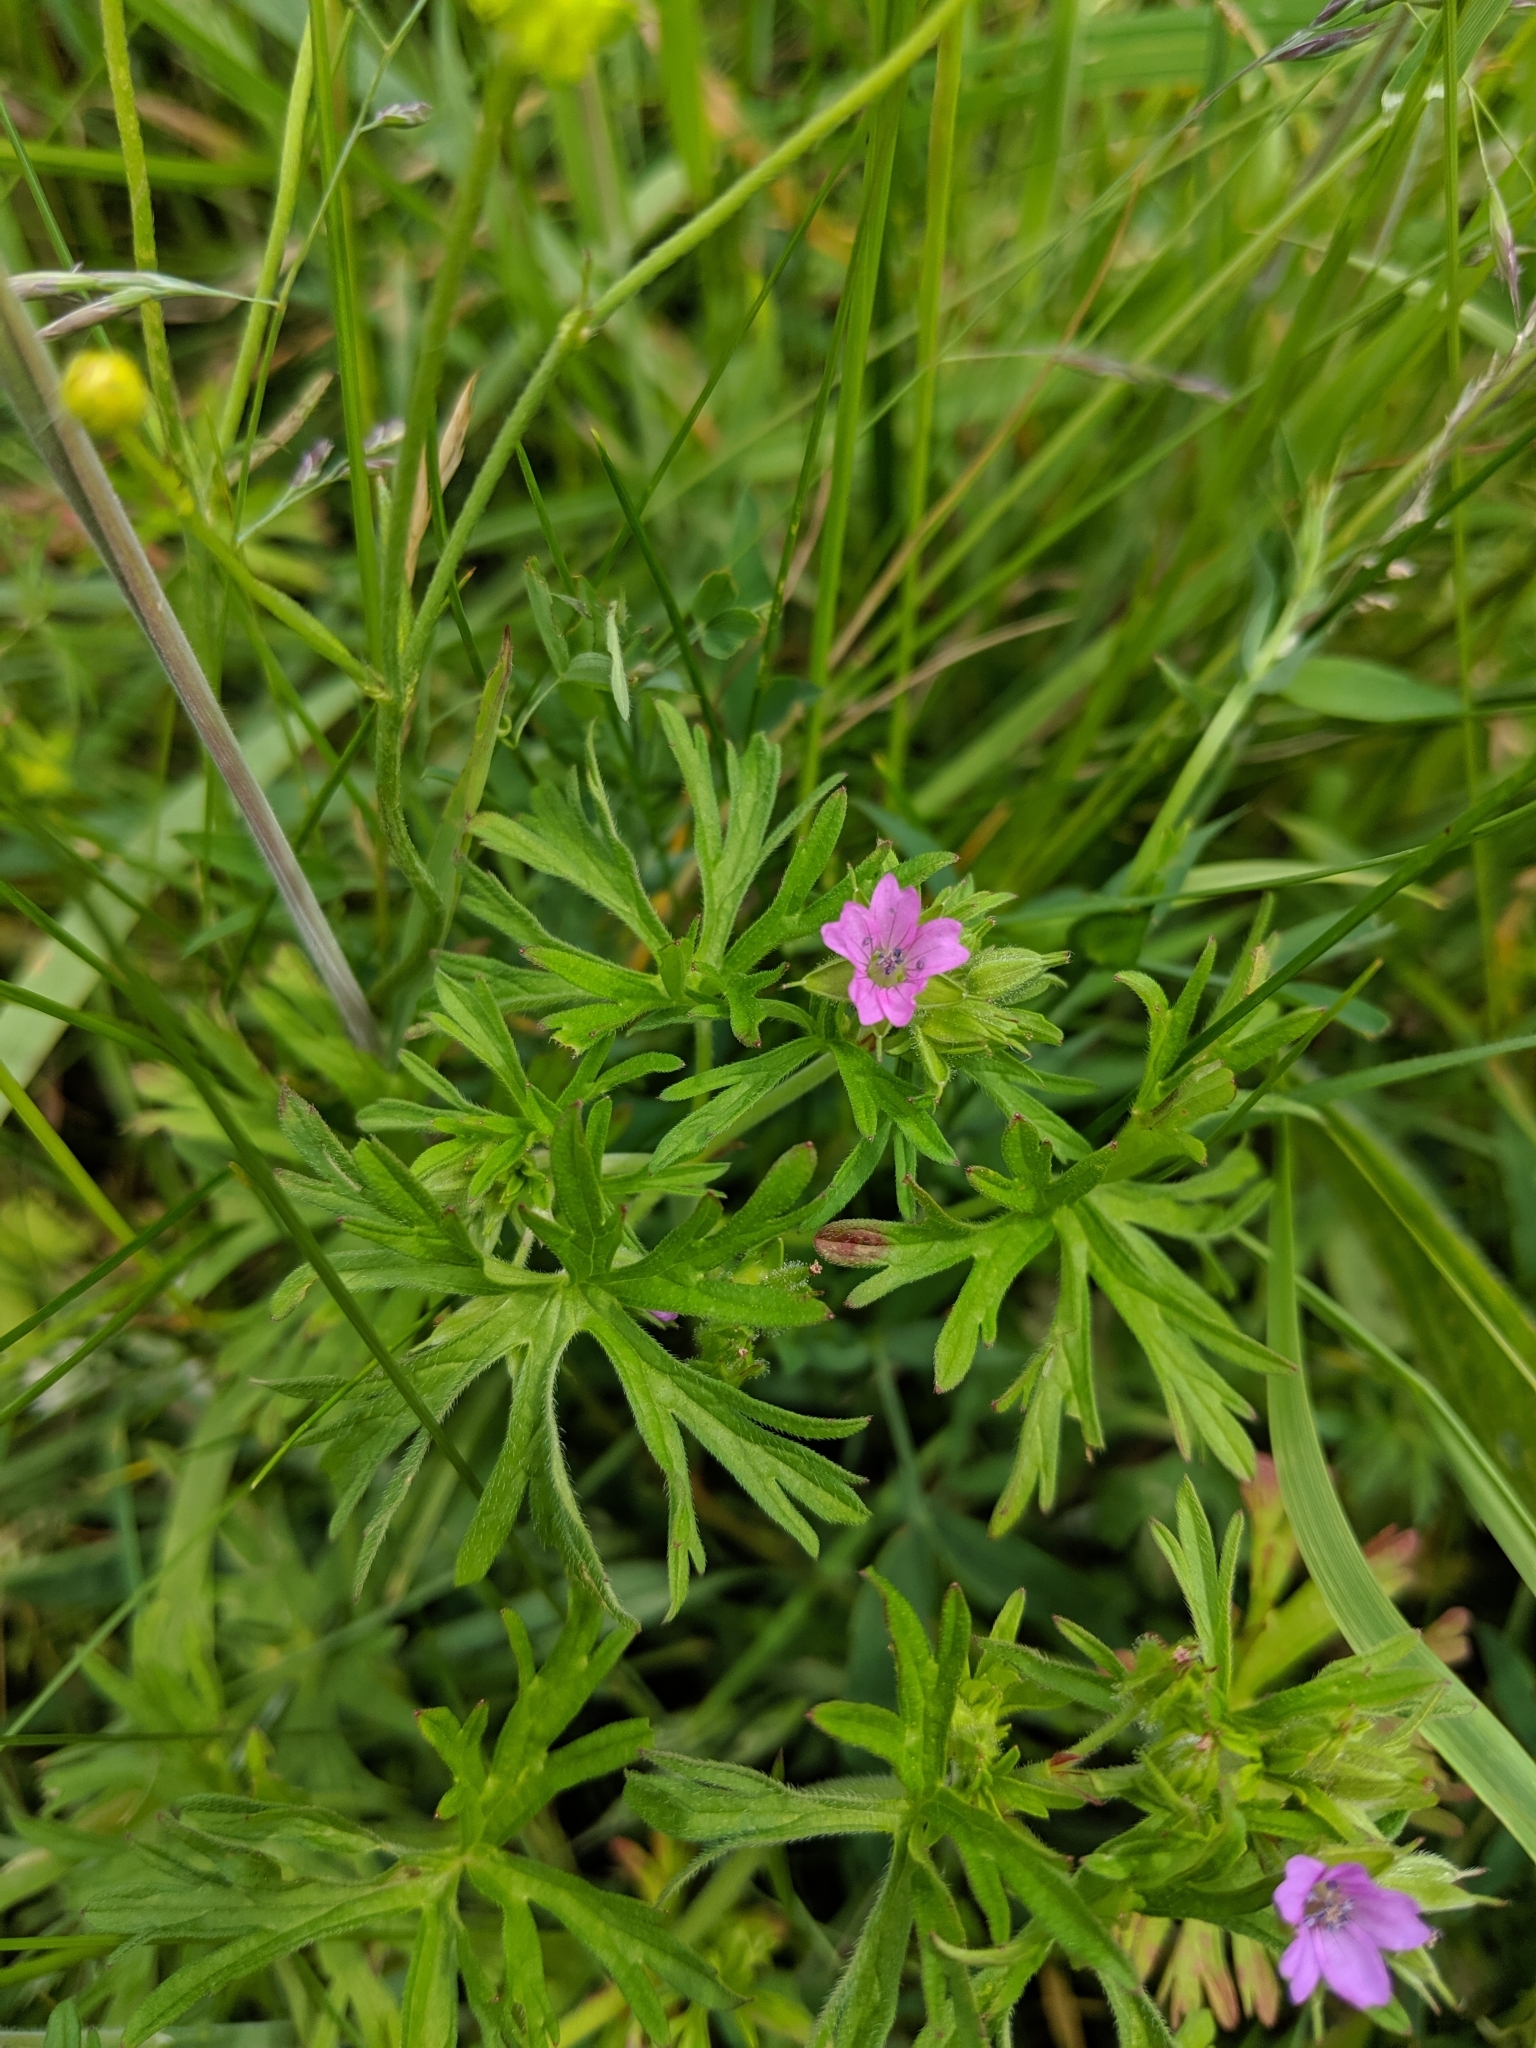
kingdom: Plantae
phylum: Tracheophyta
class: Magnoliopsida
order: Geraniales
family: Geraniaceae
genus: Geranium
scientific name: Geranium dissectum
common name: Cut-leaved crane's-bill
